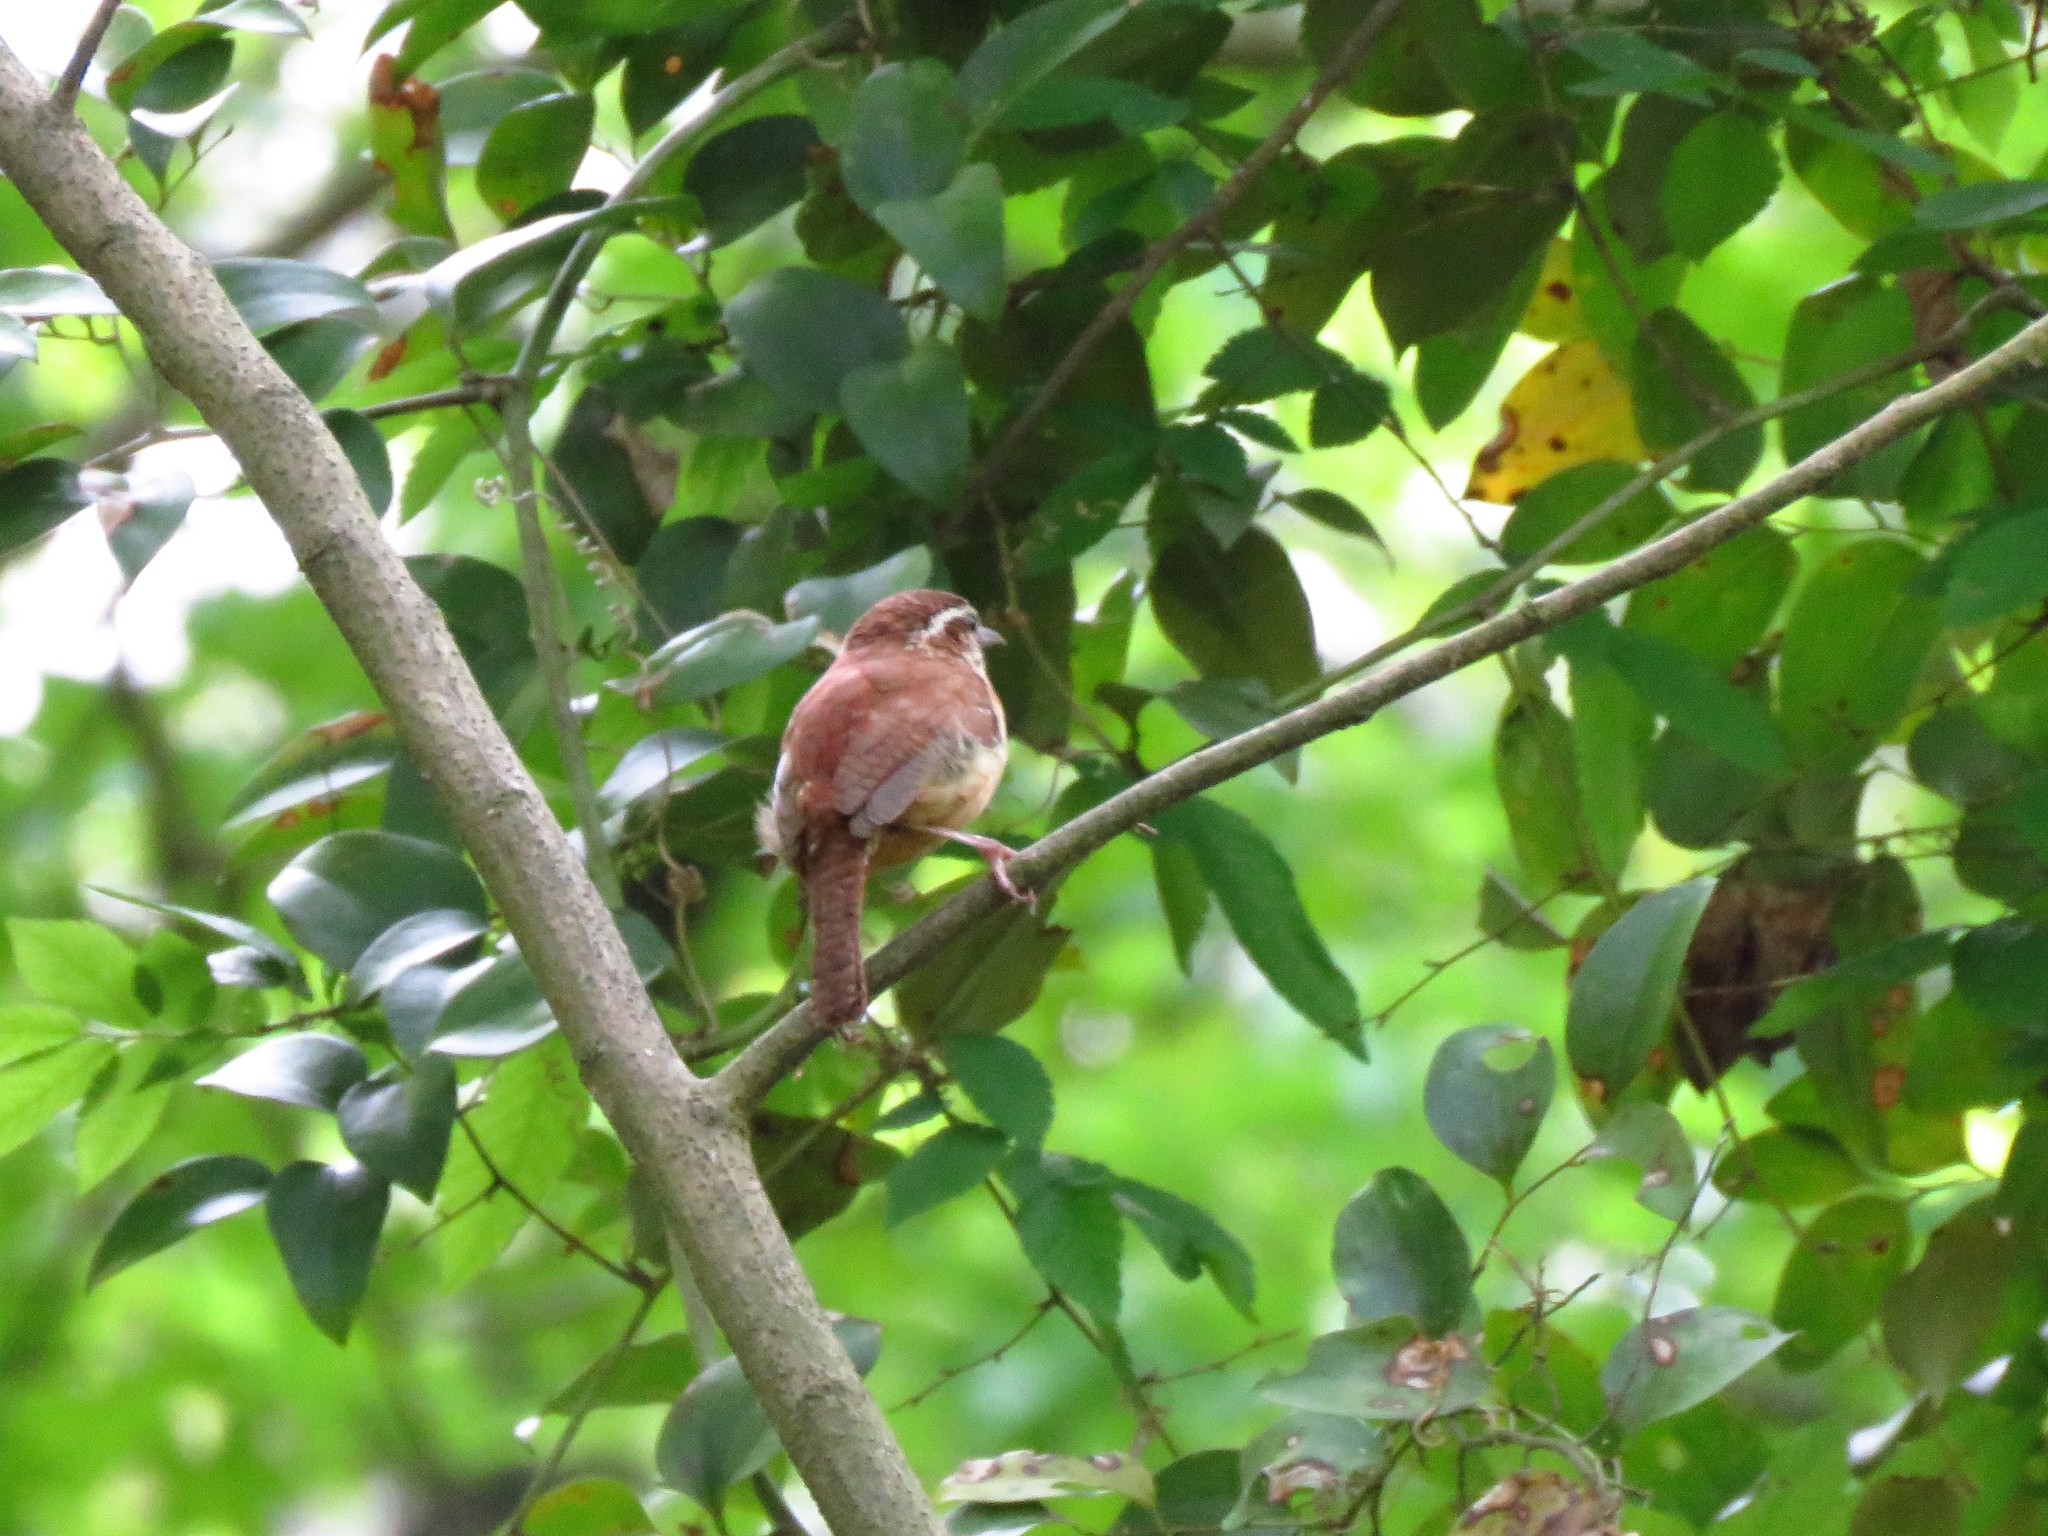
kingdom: Animalia
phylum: Chordata
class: Aves
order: Passeriformes
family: Troglodytidae
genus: Thryothorus
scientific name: Thryothorus ludovicianus
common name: Carolina wren
